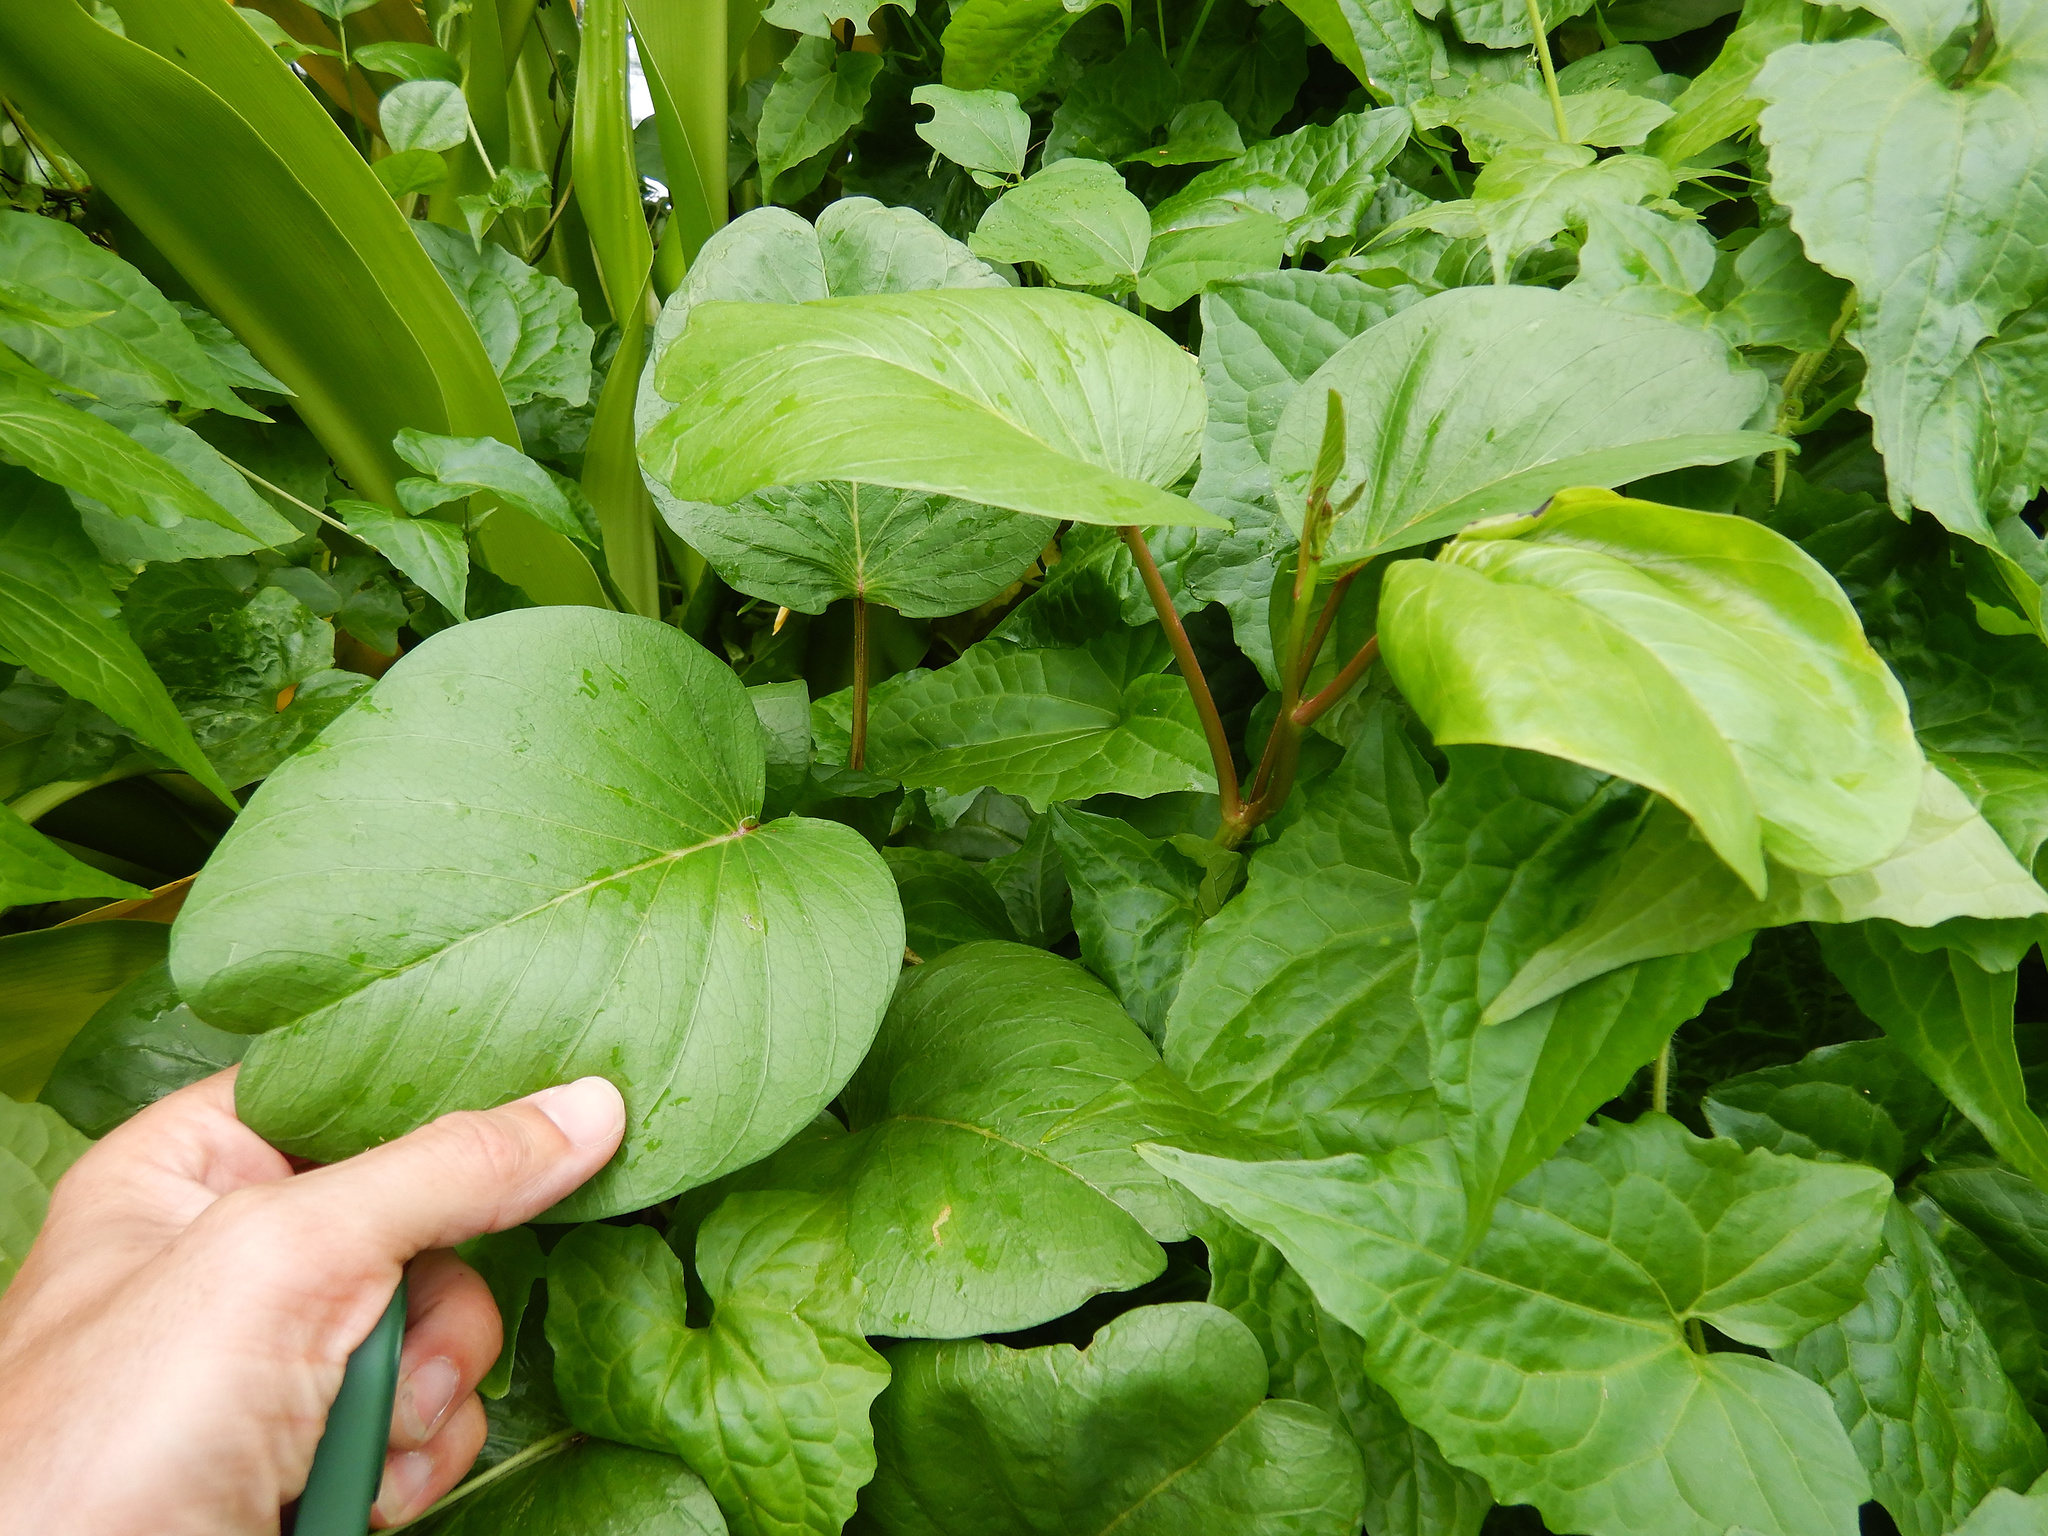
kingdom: Plantae
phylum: Tracheophyta
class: Magnoliopsida
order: Solanales
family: Convolvulaceae
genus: Ipomoea
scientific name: Ipomoea pes-caprae
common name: Beach morning glory
